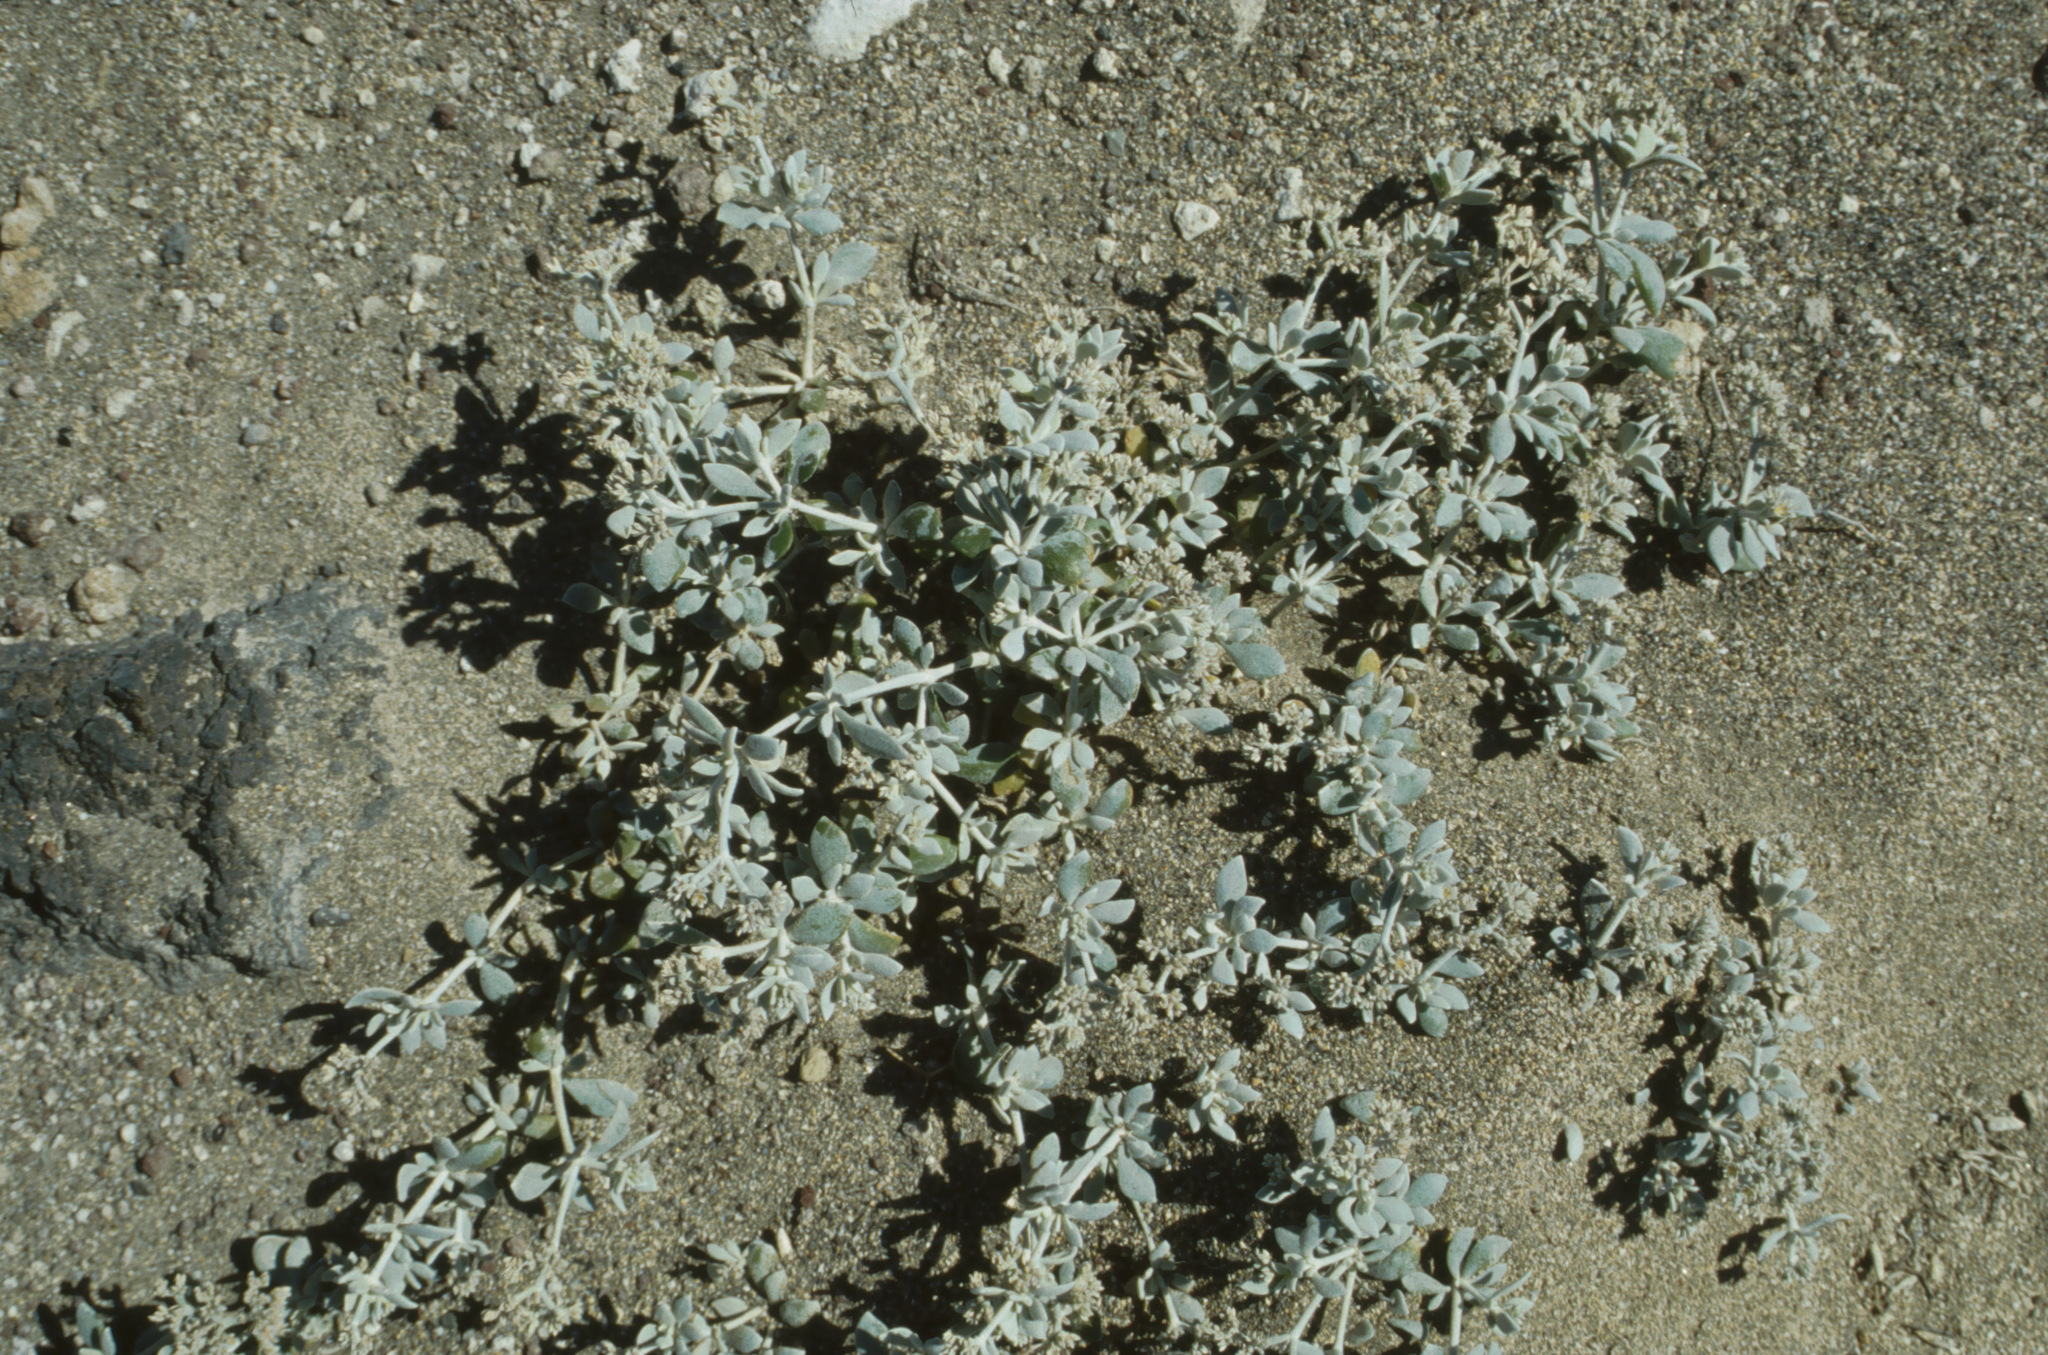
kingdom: Plantae
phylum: Tracheophyta
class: Magnoliopsida
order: Caryophyllales
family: Caryophyllaceae
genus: Polycarpaea
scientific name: Polycarpaea nivea
